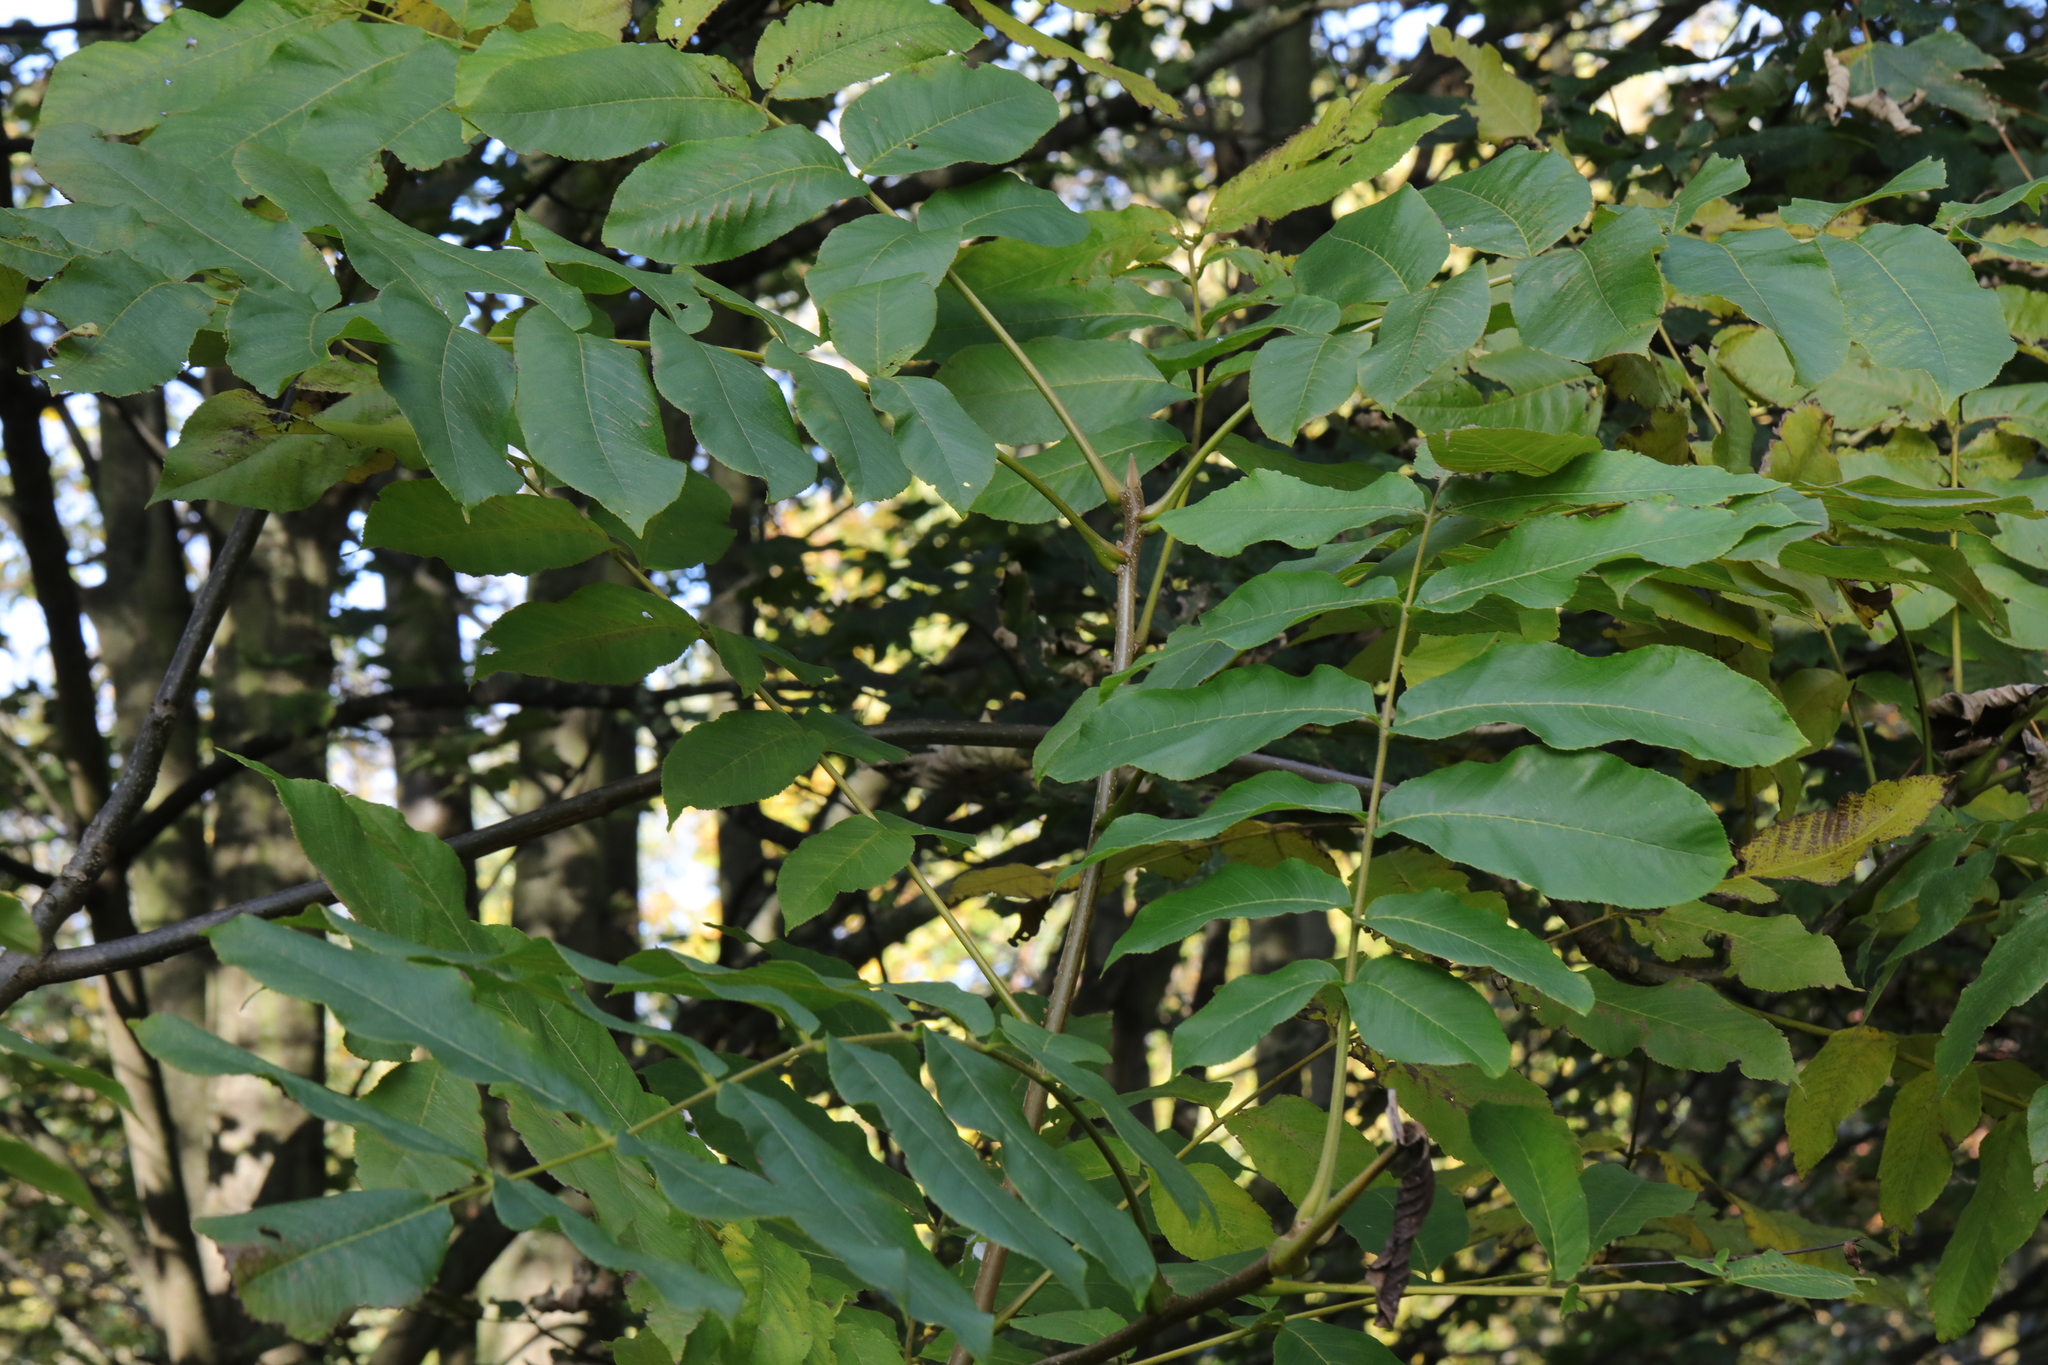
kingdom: Plantae
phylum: Tracheophyta
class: Magnoliopsida
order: Fagales
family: Juglandaceae
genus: Juglans
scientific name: Juglans regia
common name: Walnut
